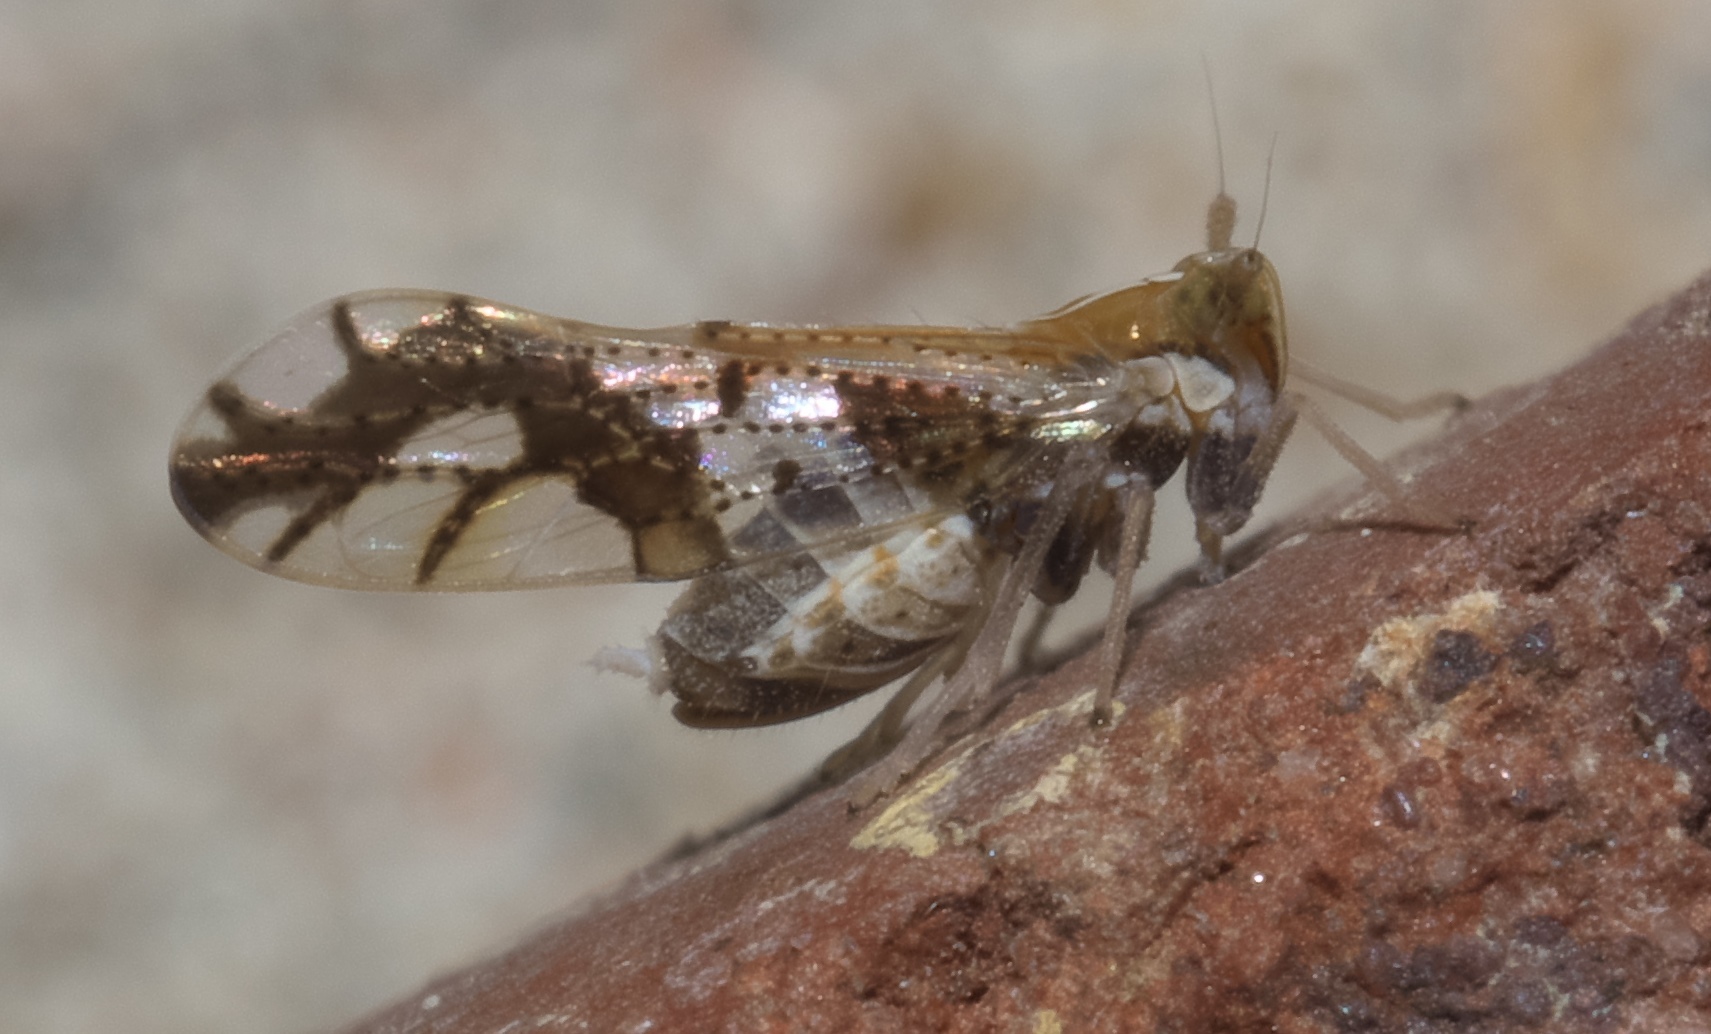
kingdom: Animalia
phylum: Arthropoda
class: Insecta
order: Hemiptera
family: Delphacidae
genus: Liburniella
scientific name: Liburniella ornata
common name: Ornate planthopper
